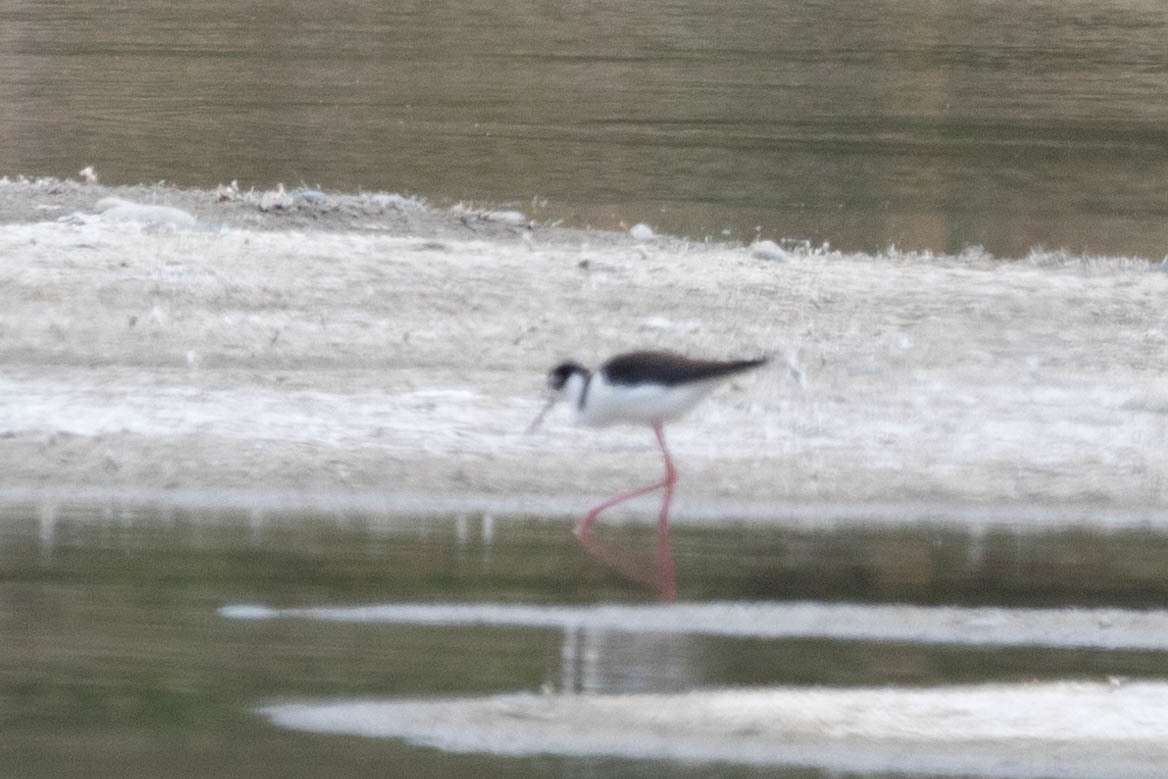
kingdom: Animalia
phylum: Chordata
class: Aves
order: Charadriiformes
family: Recurvirostridae
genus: Himantopus
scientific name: Himantopus mexicanus
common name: Black-necked stilt
